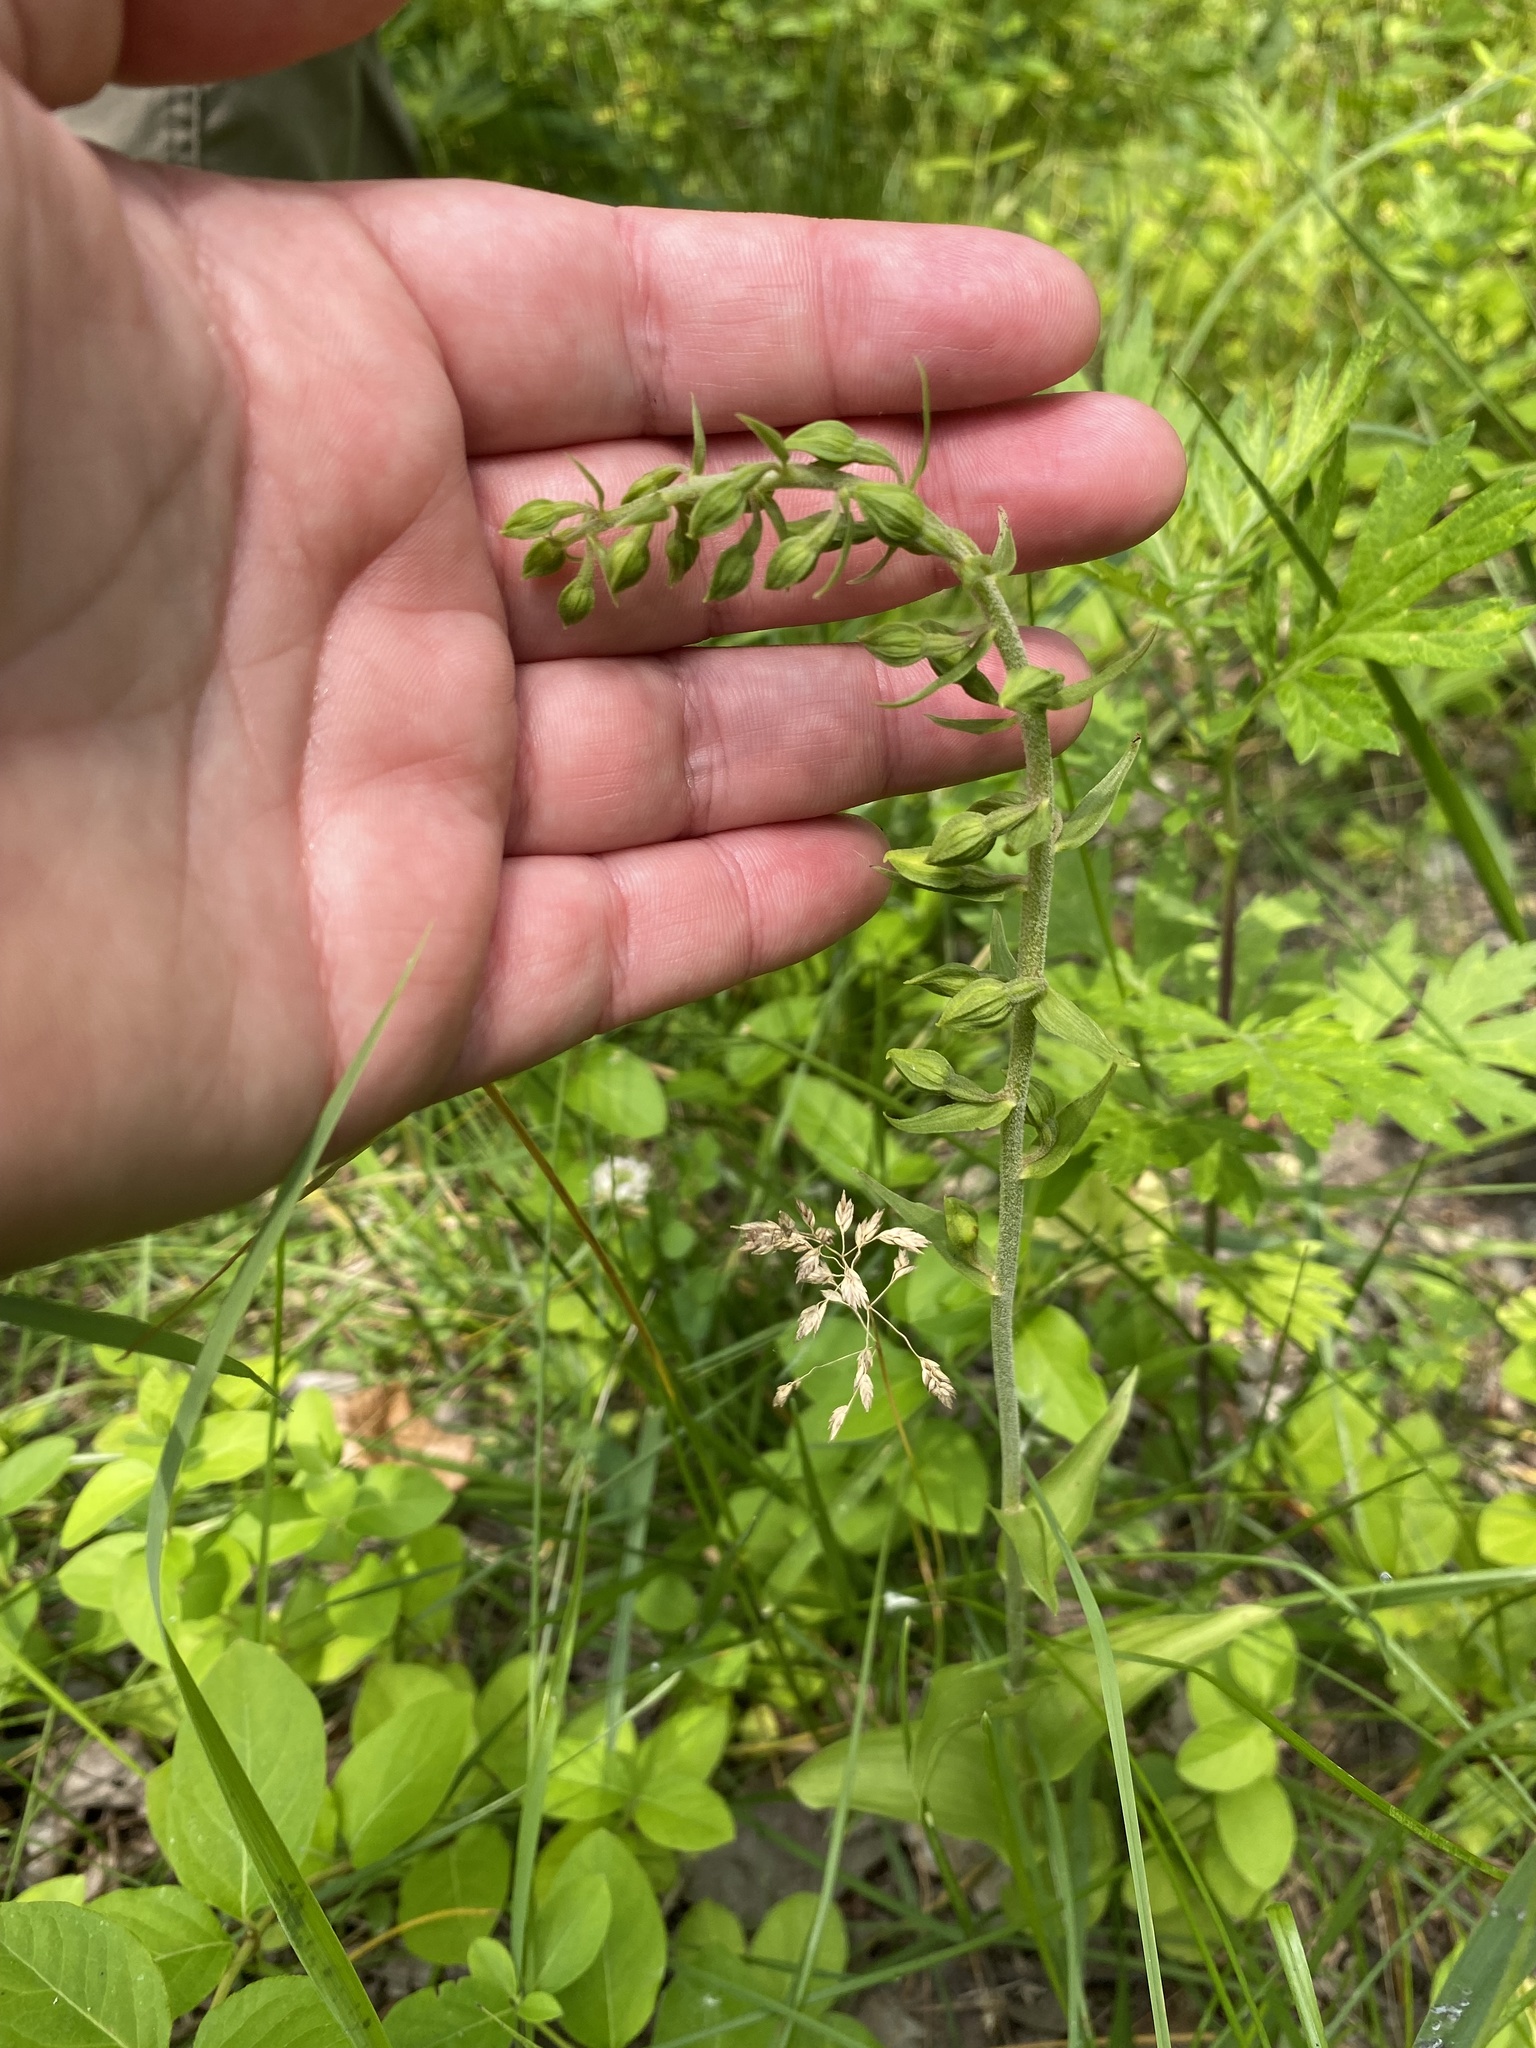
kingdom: Plantae
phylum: Tracheophyta
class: Liliopsida
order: Asparagales
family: Orchidaceae
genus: Epipactis
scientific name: Epipactis helleborine
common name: Broad-leaved helleborine
